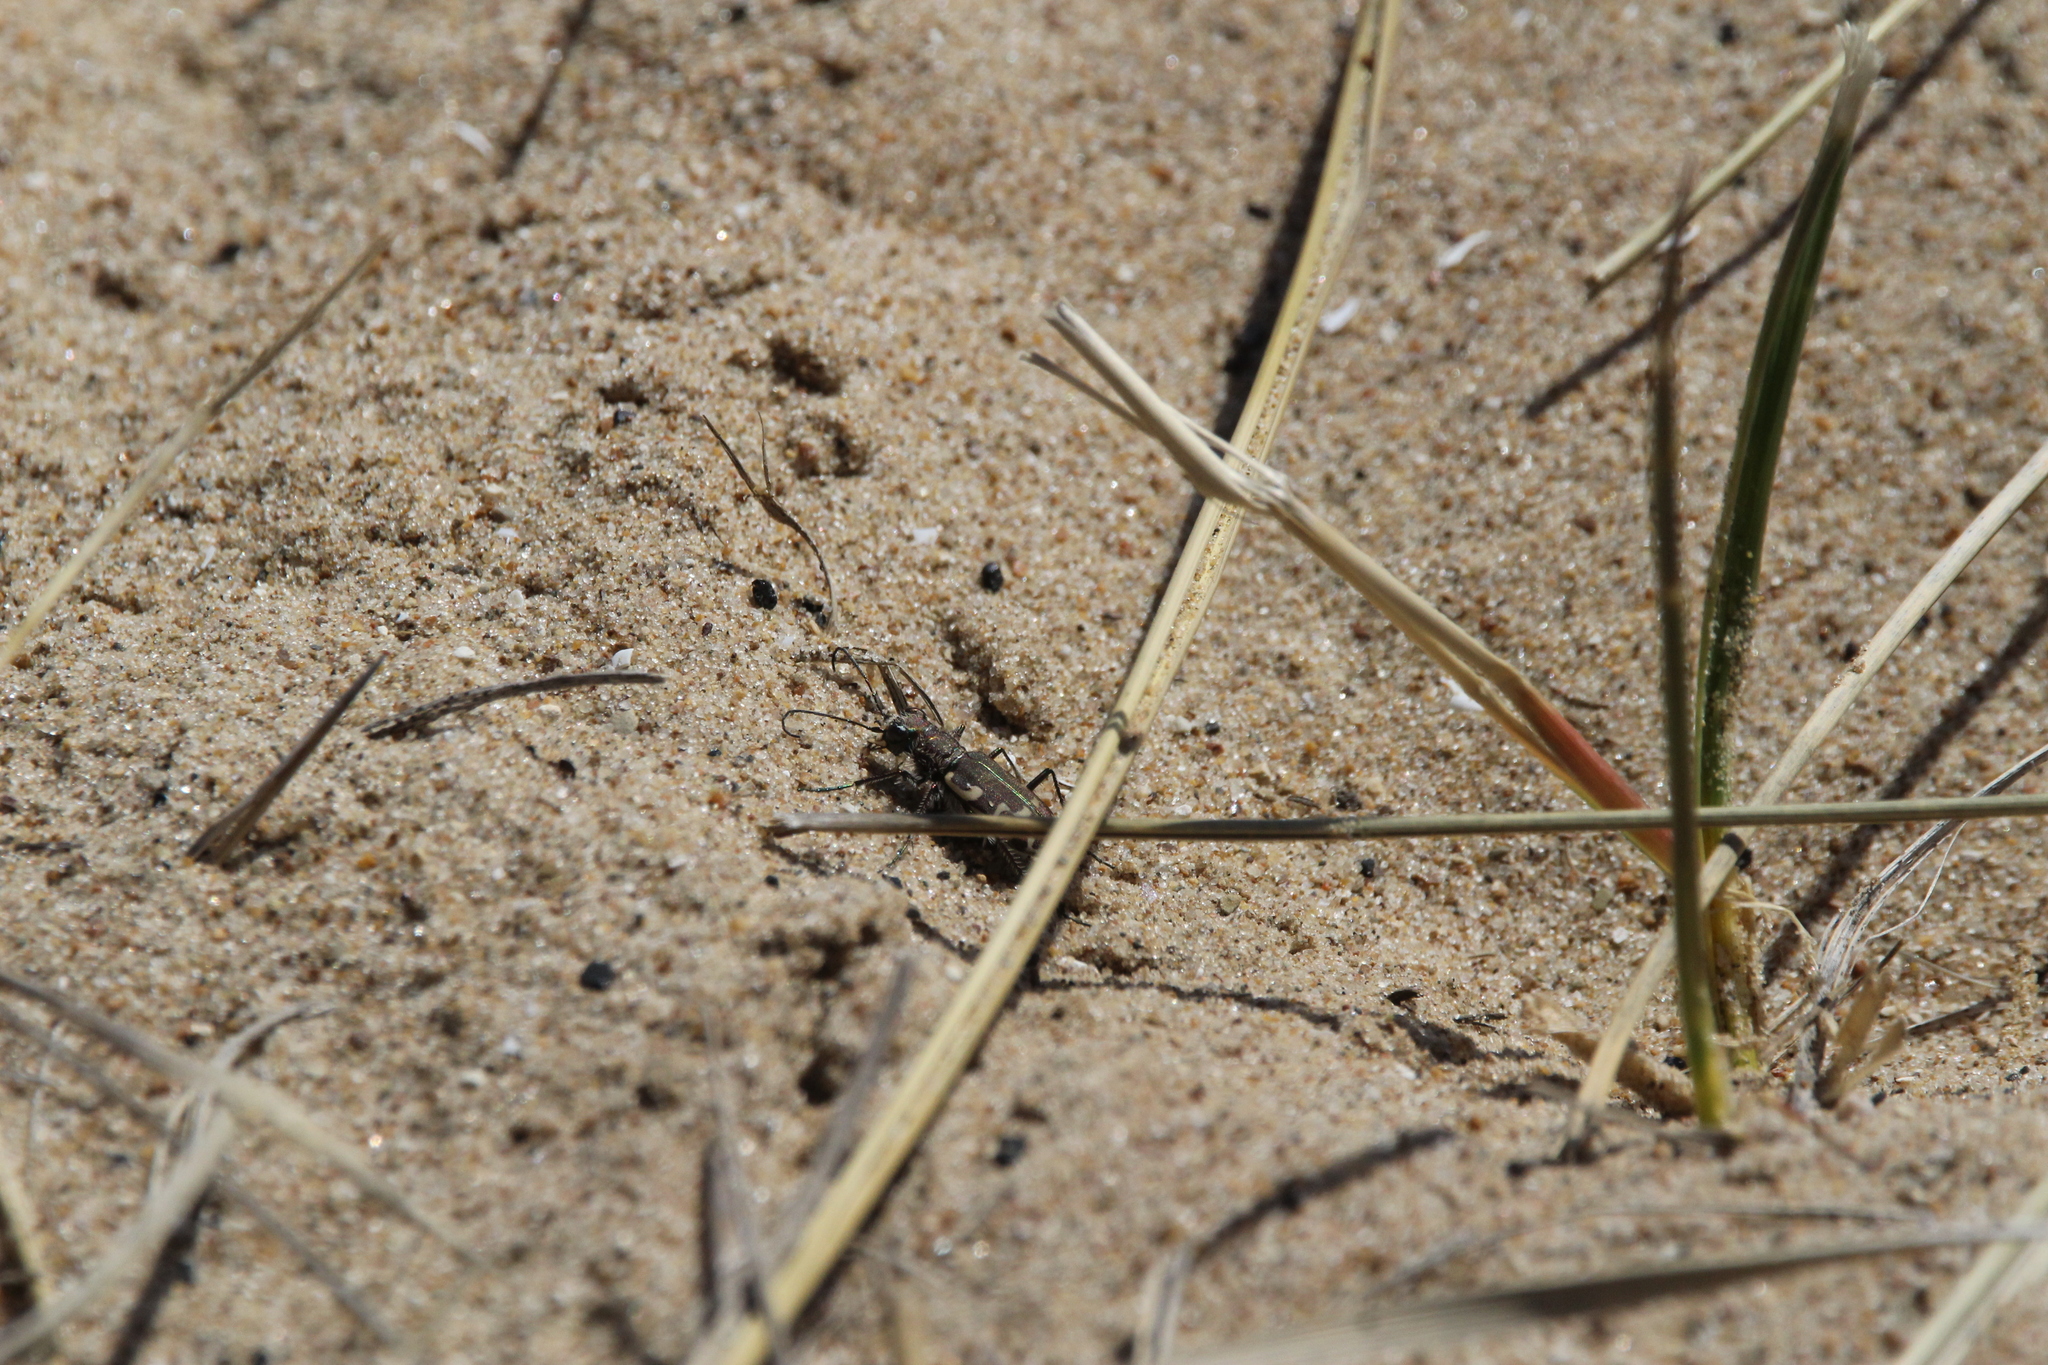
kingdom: Animalia
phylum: Arthropoda
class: Insecta
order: Coleoptera
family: Carabidae
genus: Cicindela
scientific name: Cicindela repanda
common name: Bronzed tiger beetle
